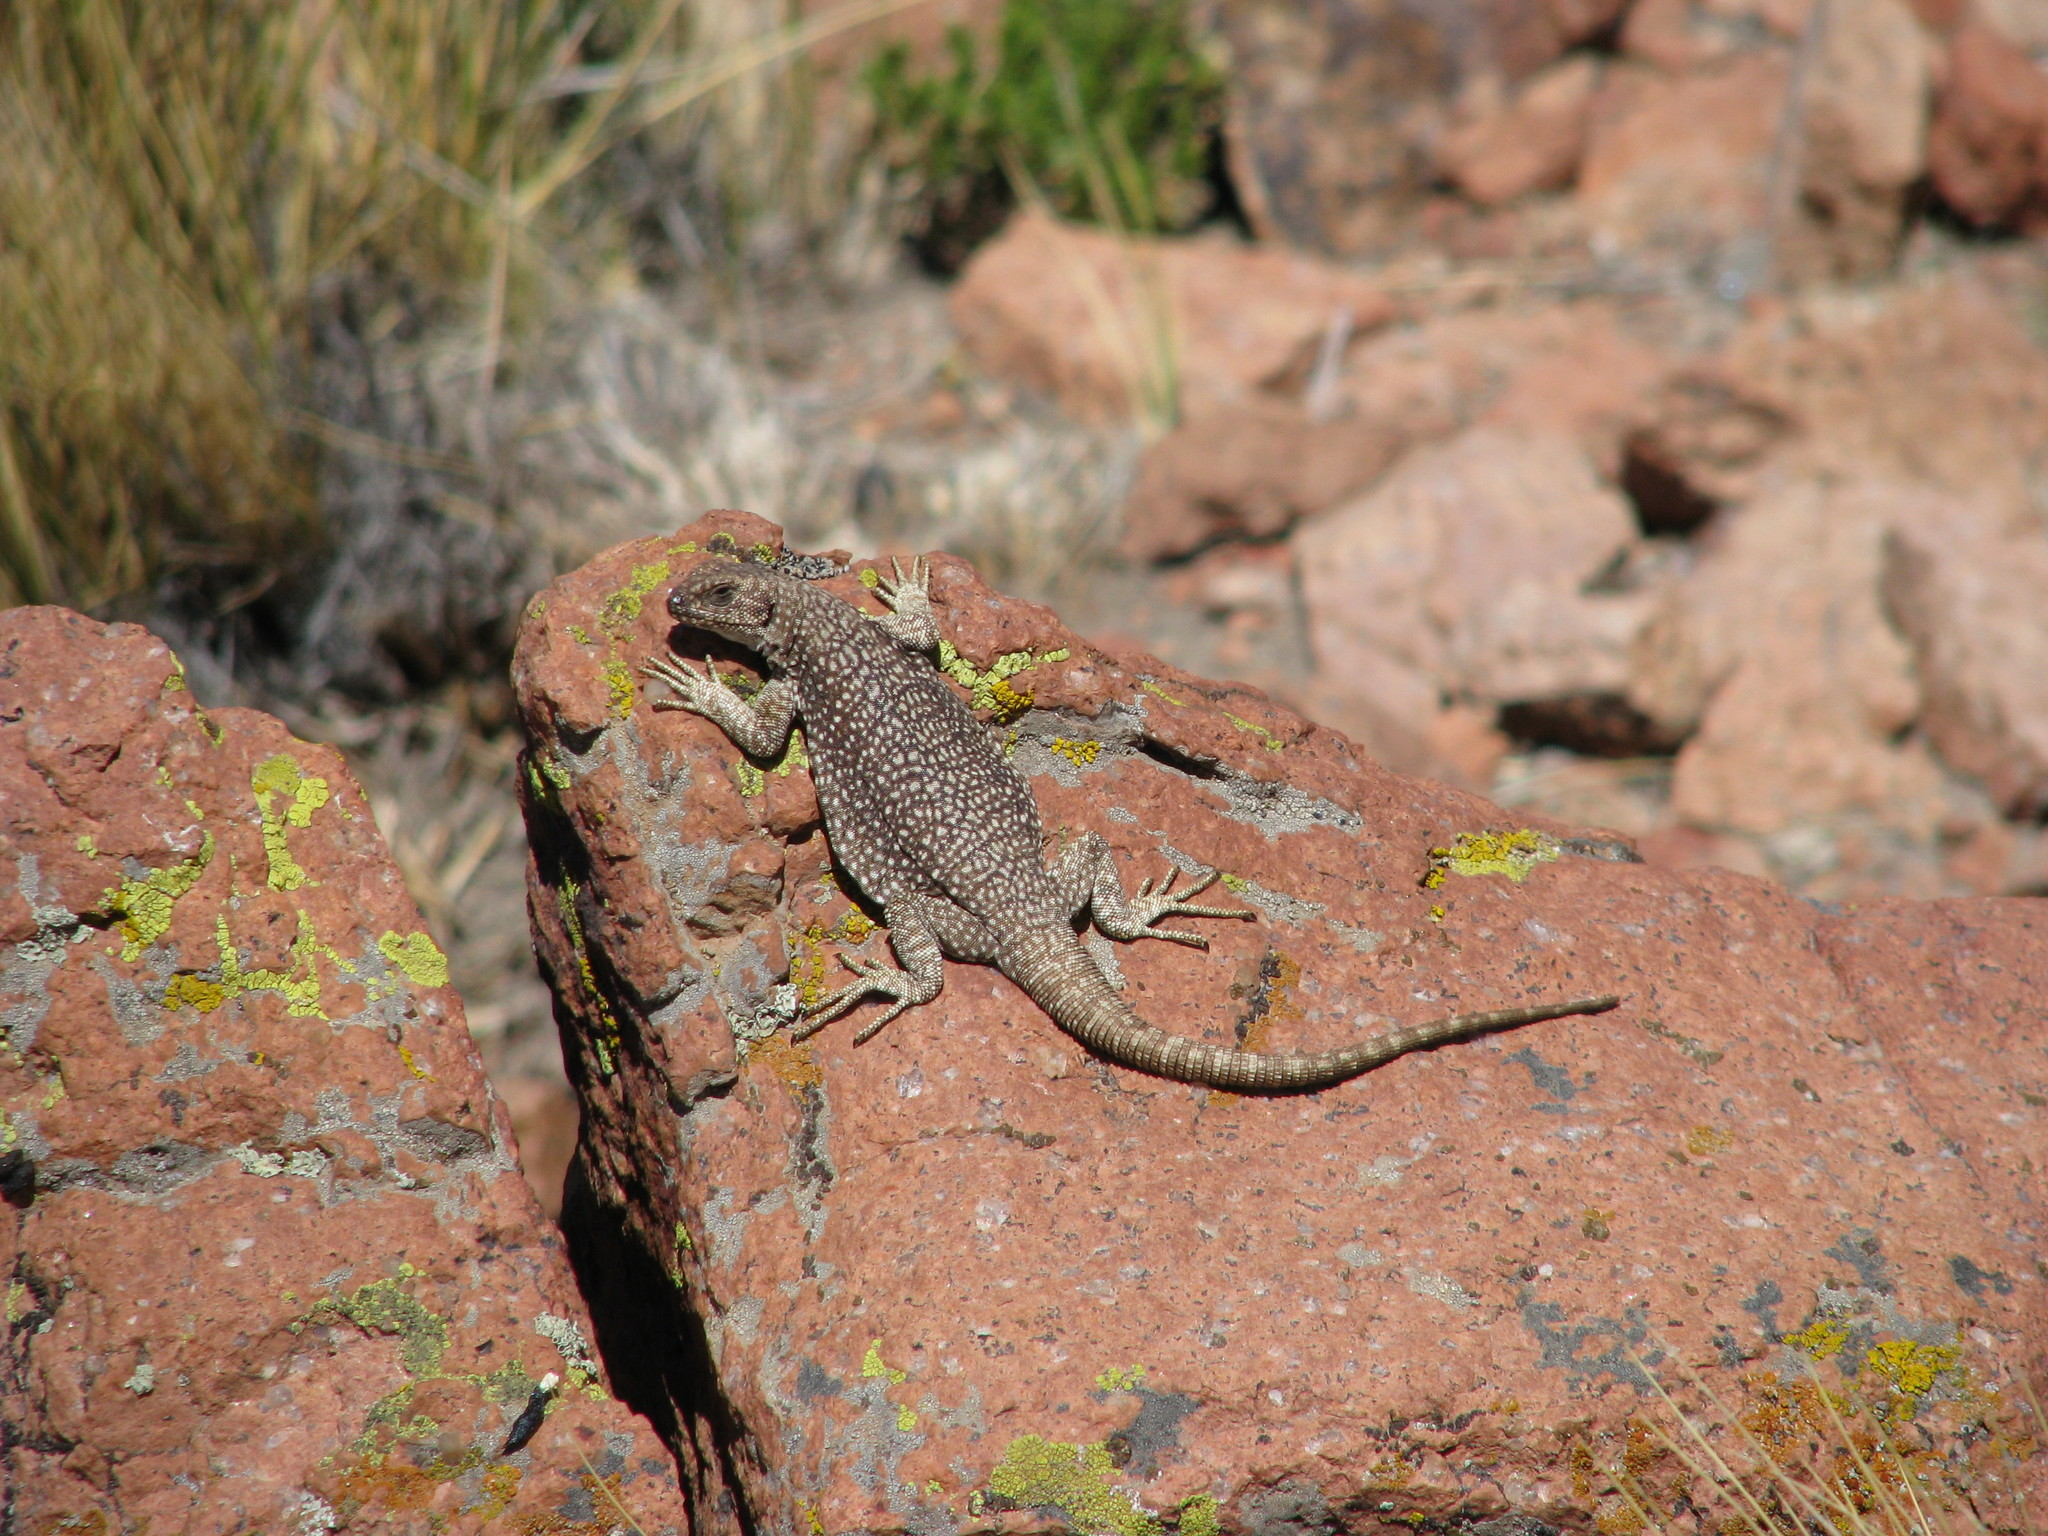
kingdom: Animalia
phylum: Chordata
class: Squamata
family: Liolaemidae
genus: Phymaturus
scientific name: Phymaturus nevadoi
